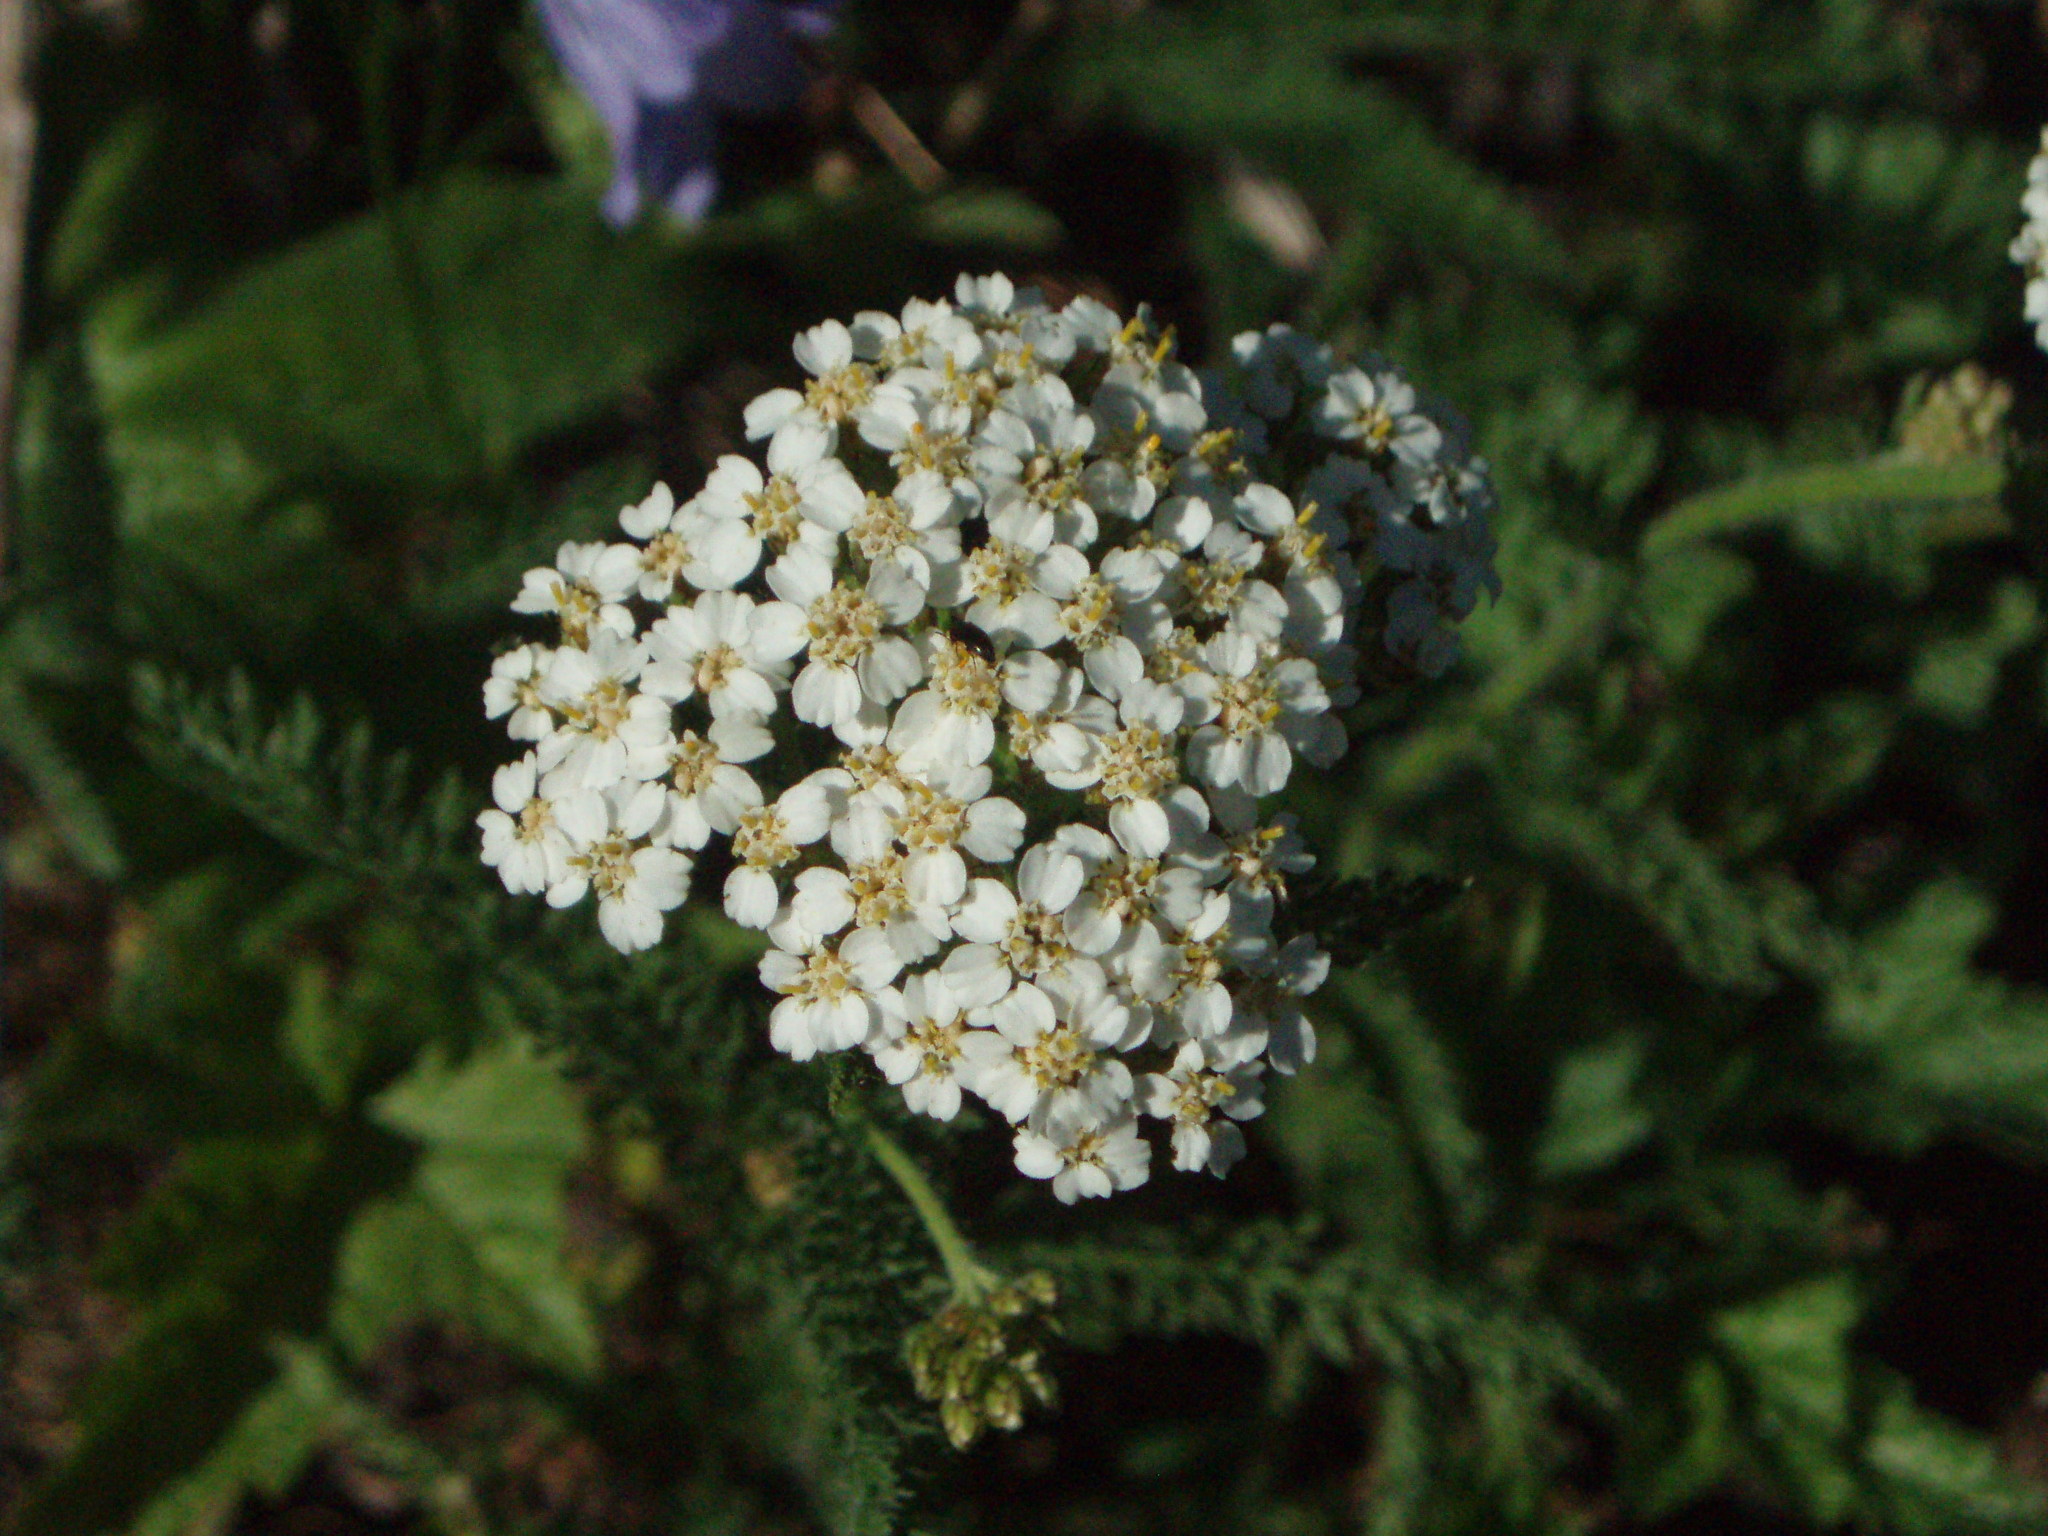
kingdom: Plantae
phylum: Tracheophyta
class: Magnoliopsida
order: Asterales
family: Asteraceae
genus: Achillea
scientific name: Achillea millefolium
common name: Yarrow
